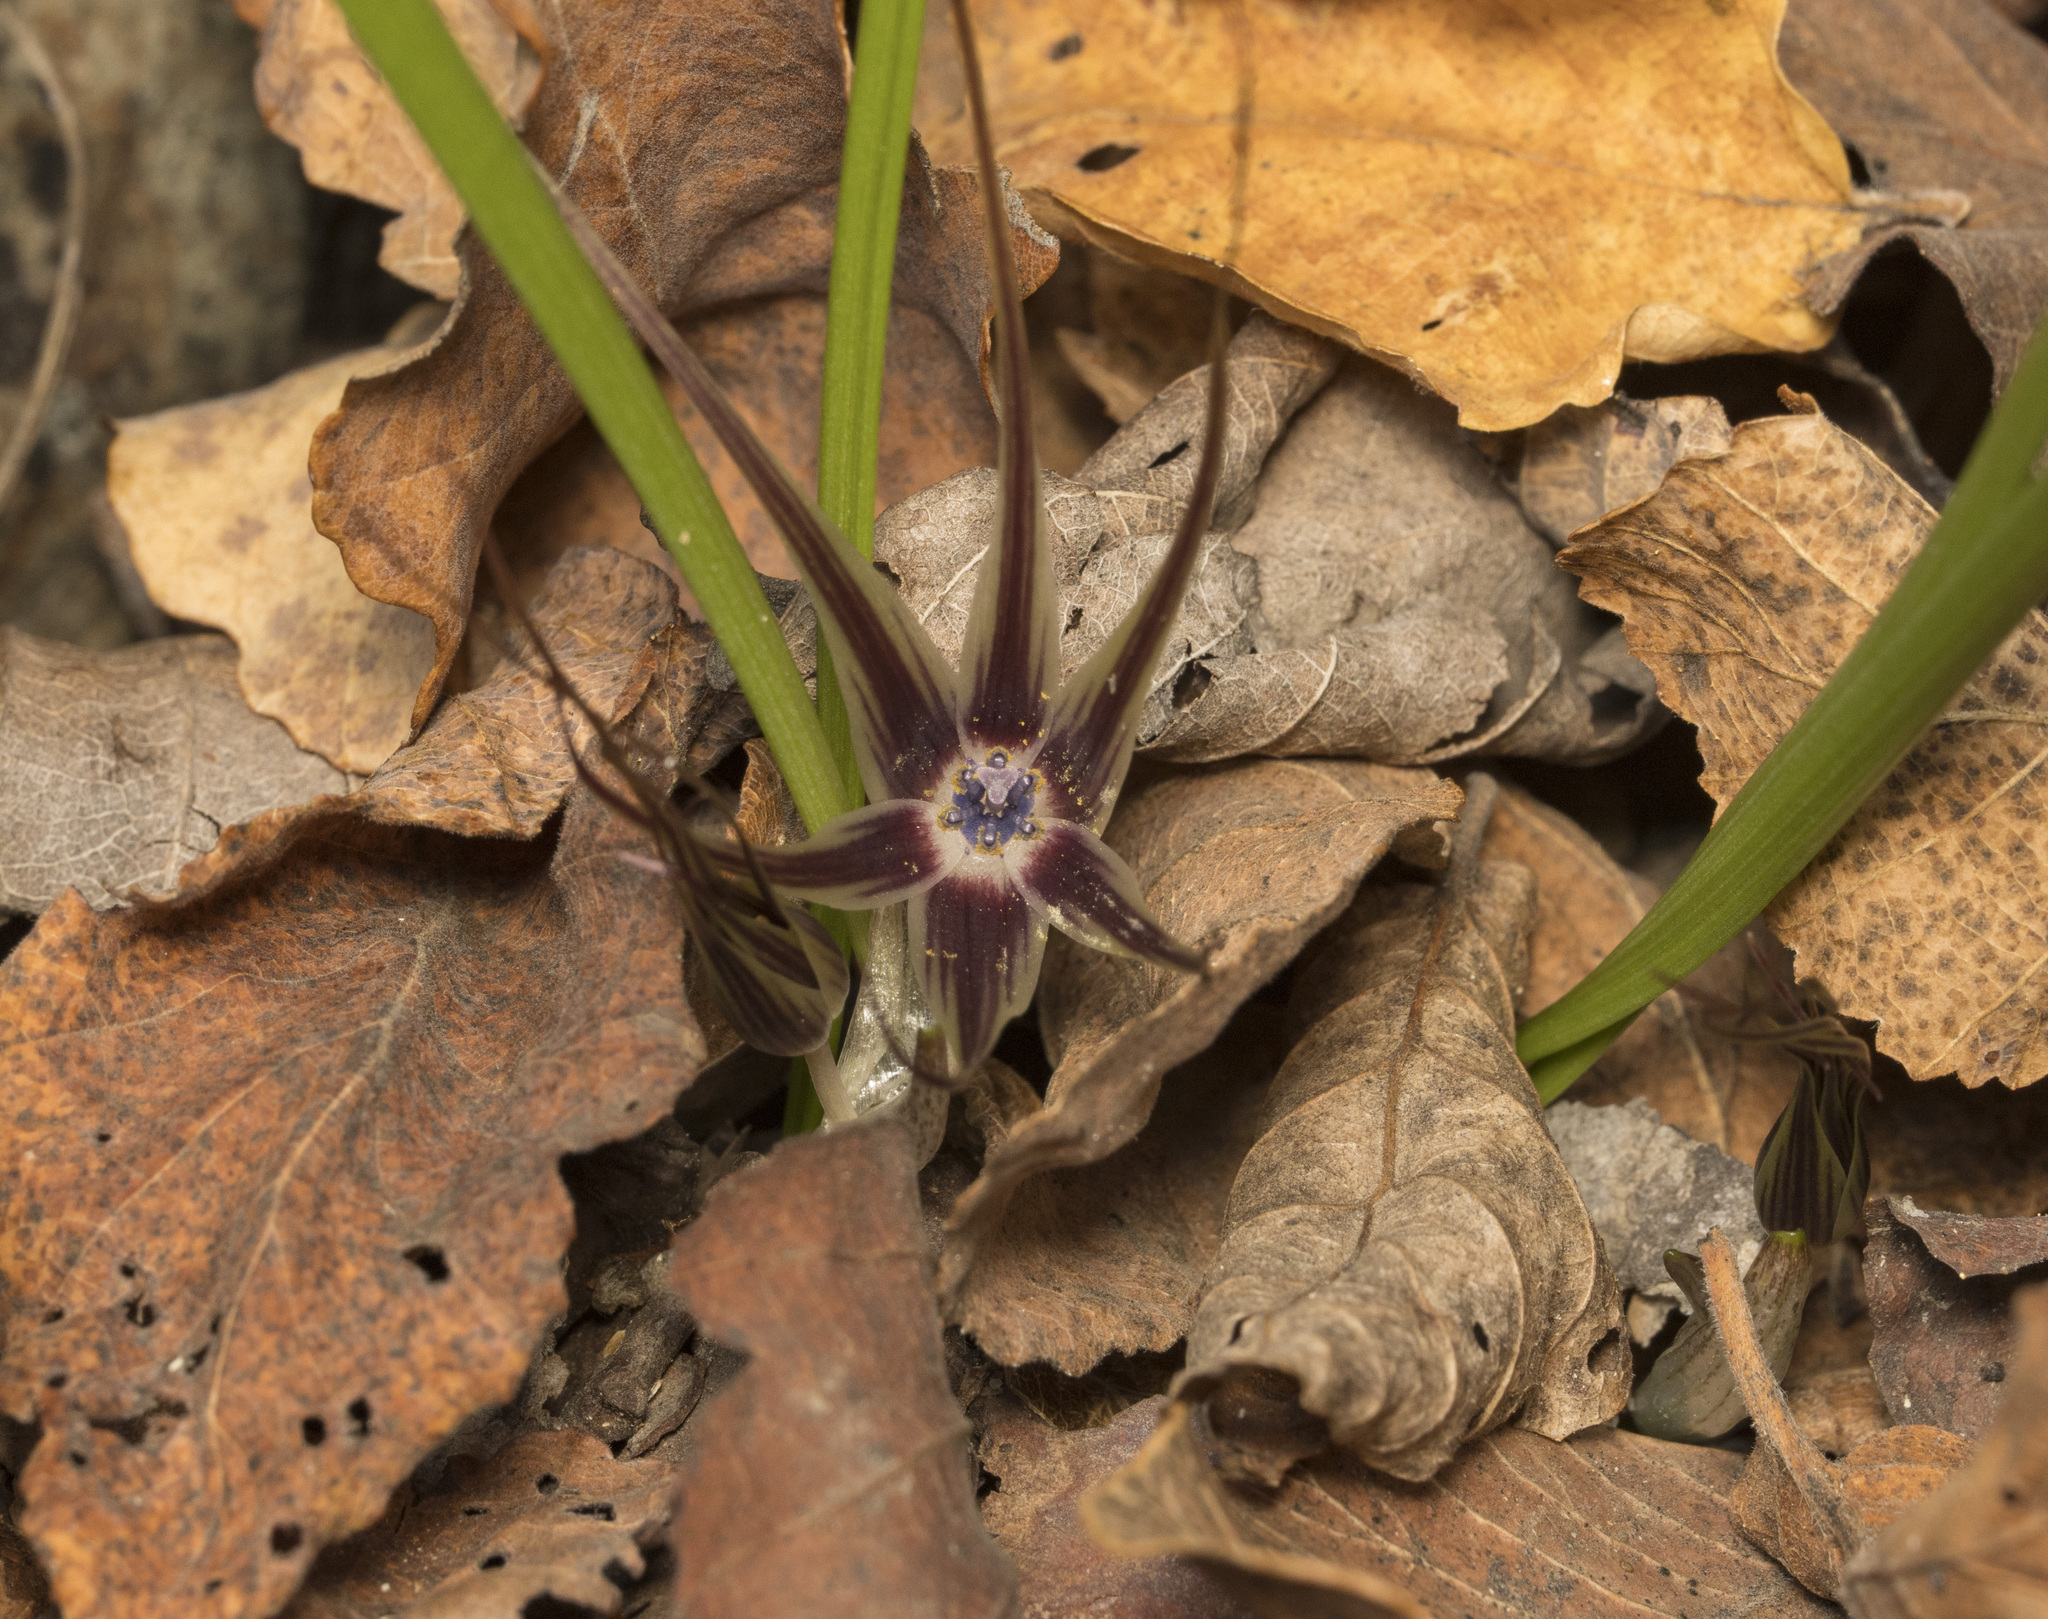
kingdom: Plantae
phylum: Tracheophyta
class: Liliopsida
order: Asparagales
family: Amaryllidaceae
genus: Miersia
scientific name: Miersia humilis
